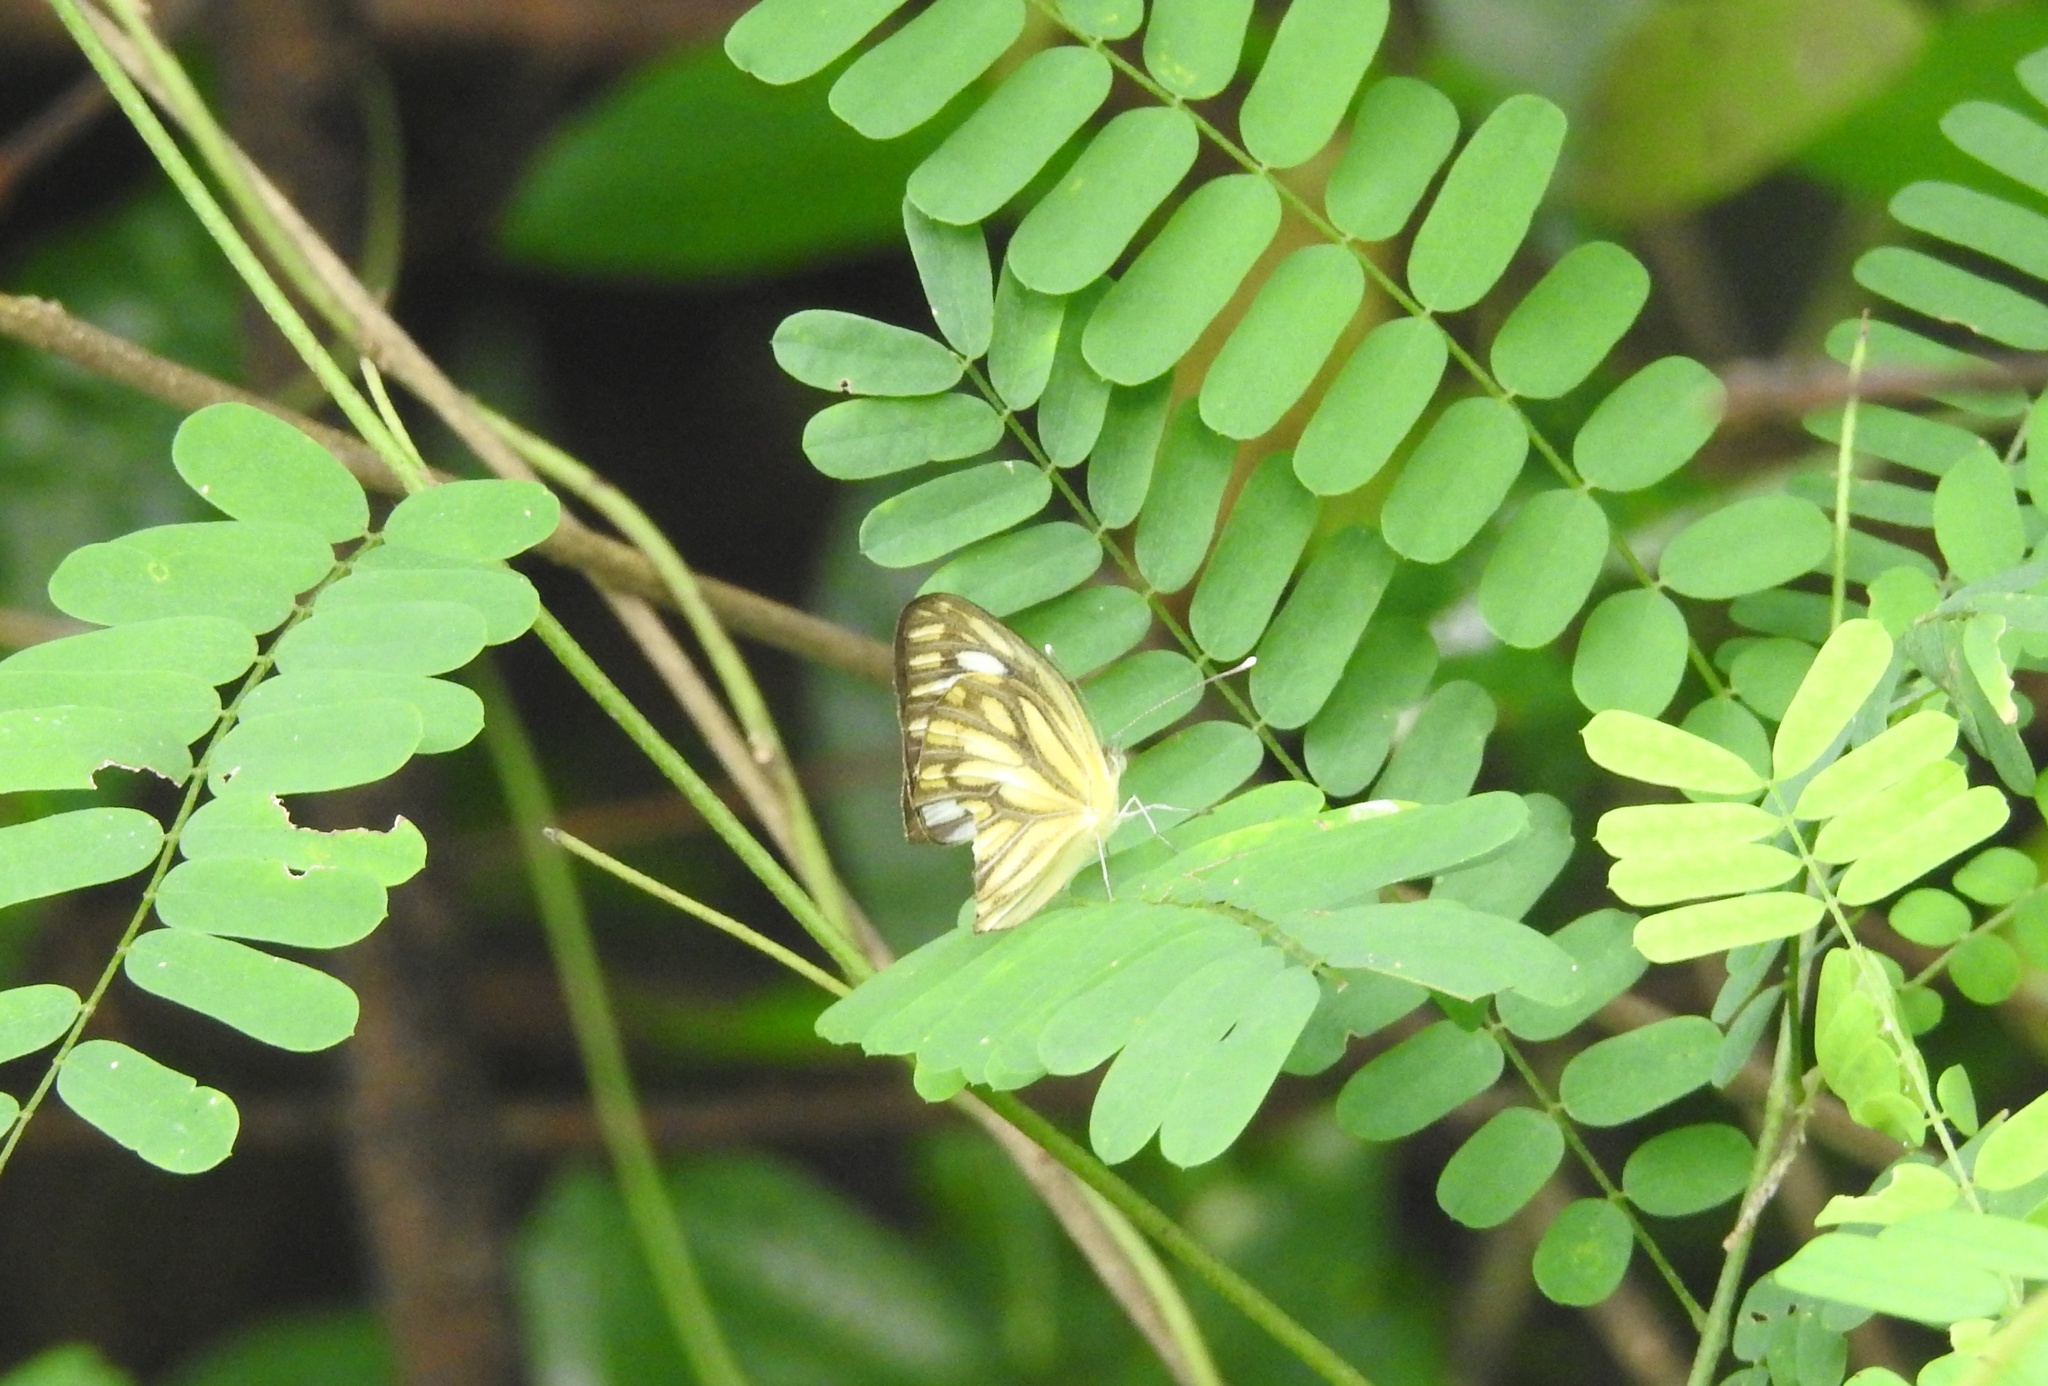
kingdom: Animalia
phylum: Arthropoda
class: Insecta
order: Lepidoptera
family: Pieridae
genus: Cepora
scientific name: Cepora nerissa
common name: Common gull
